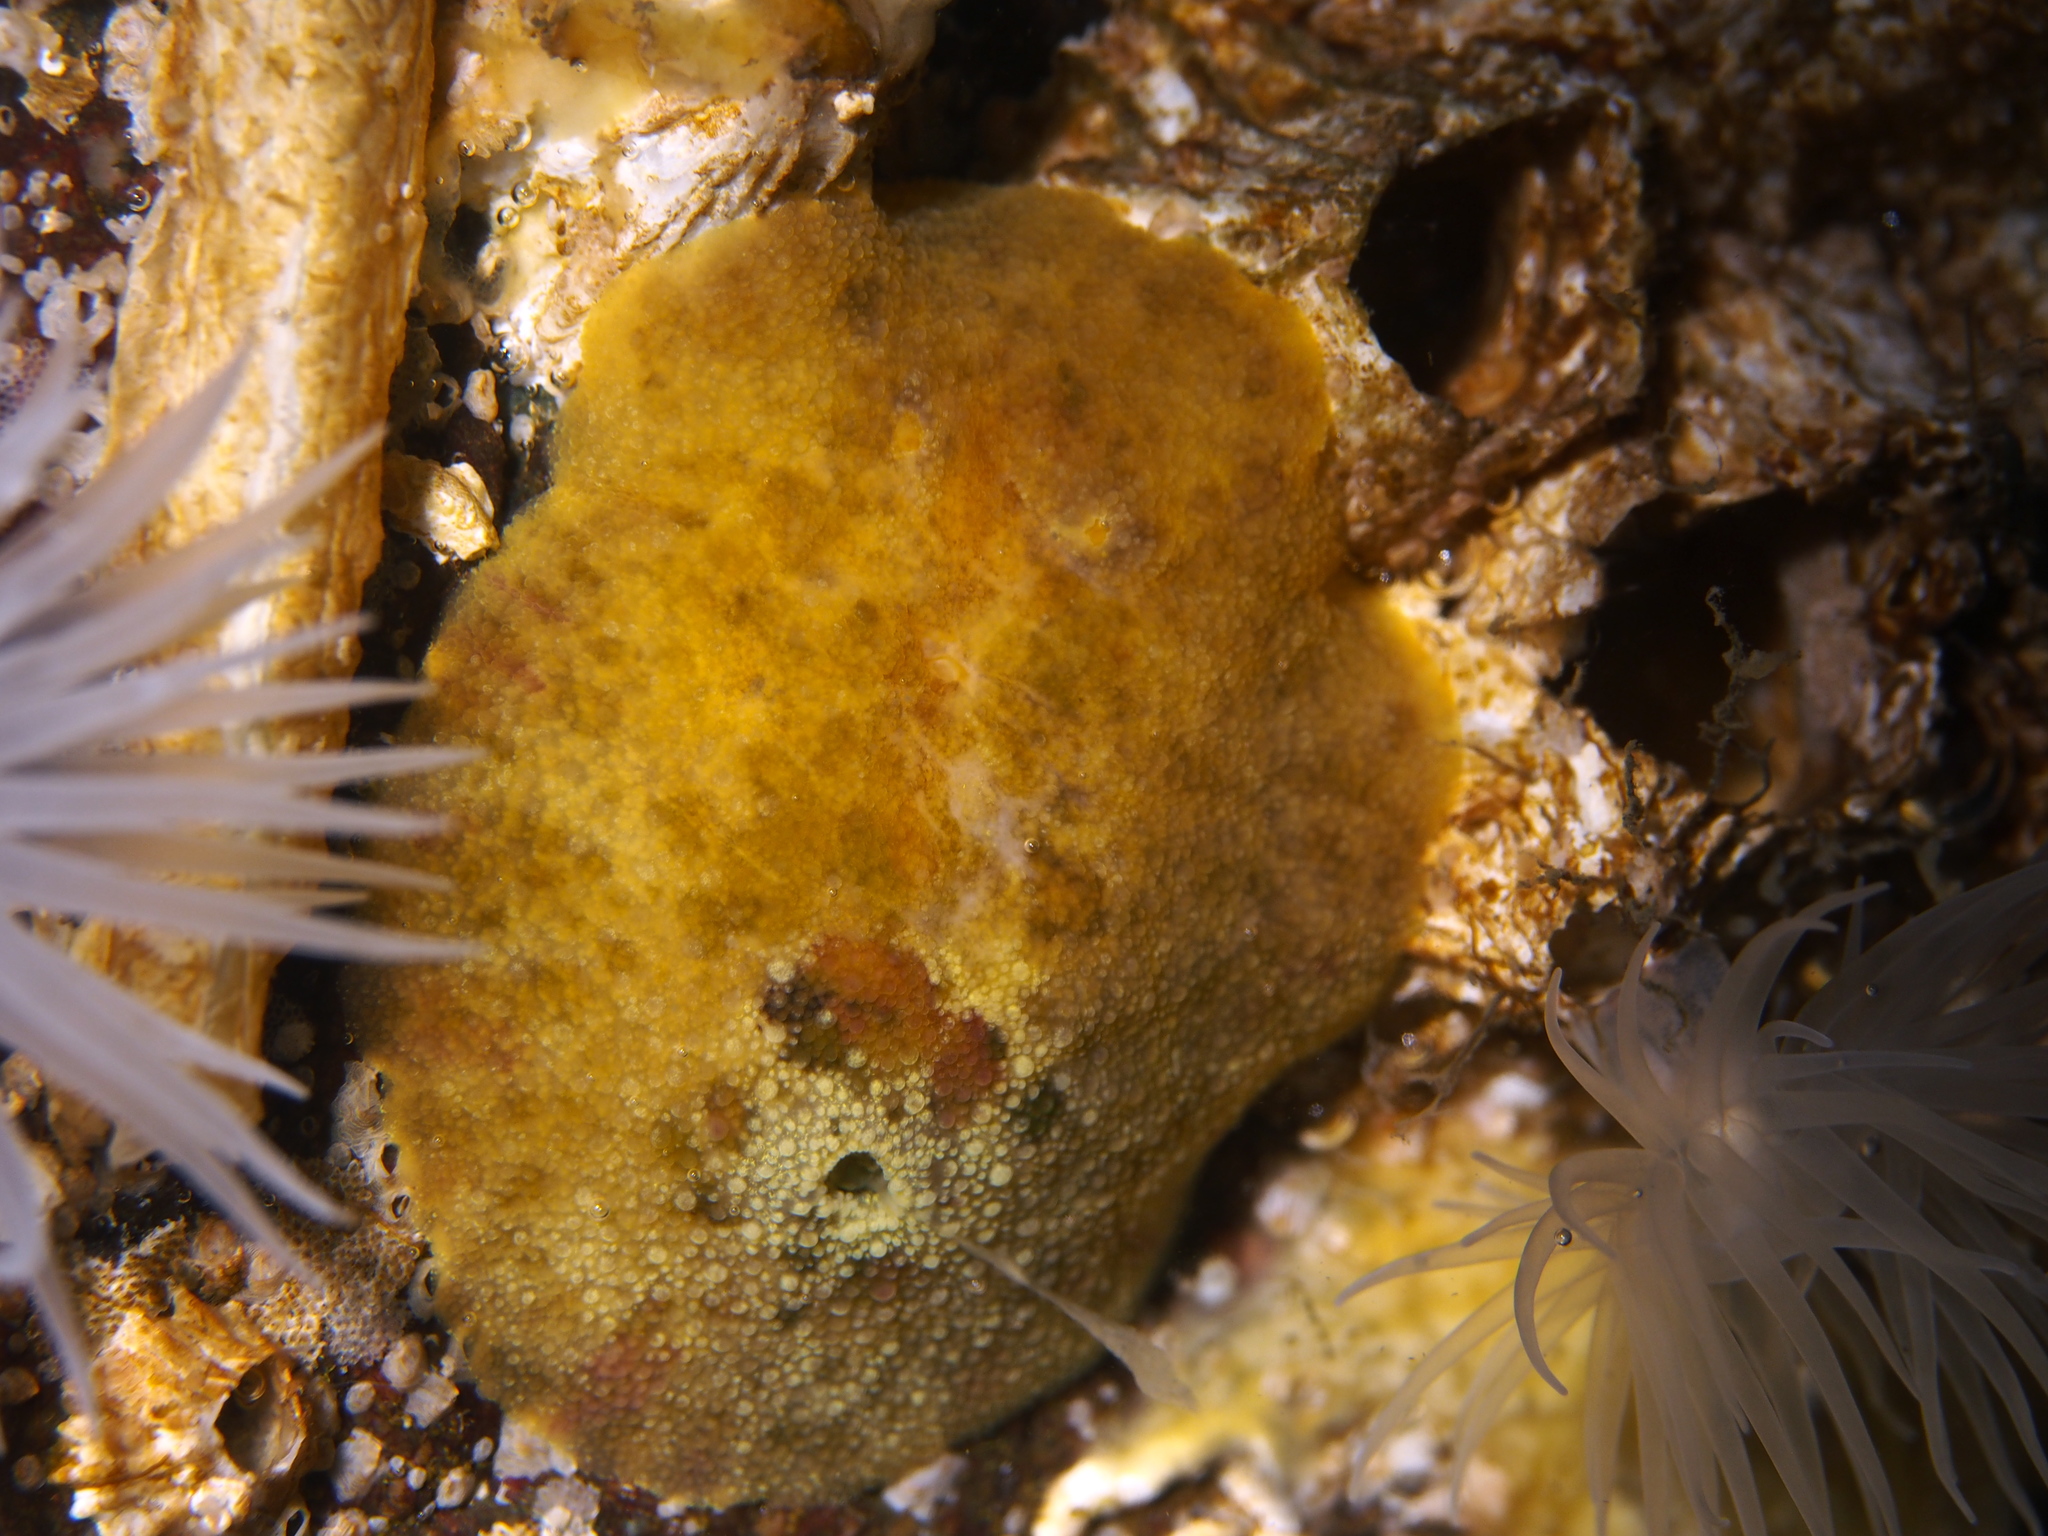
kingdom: Animalia
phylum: Mollusca
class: Gastropoda
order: Nudibranchia
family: Dorididae
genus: Doris
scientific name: Doris pseudoargus
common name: Sea lemon
